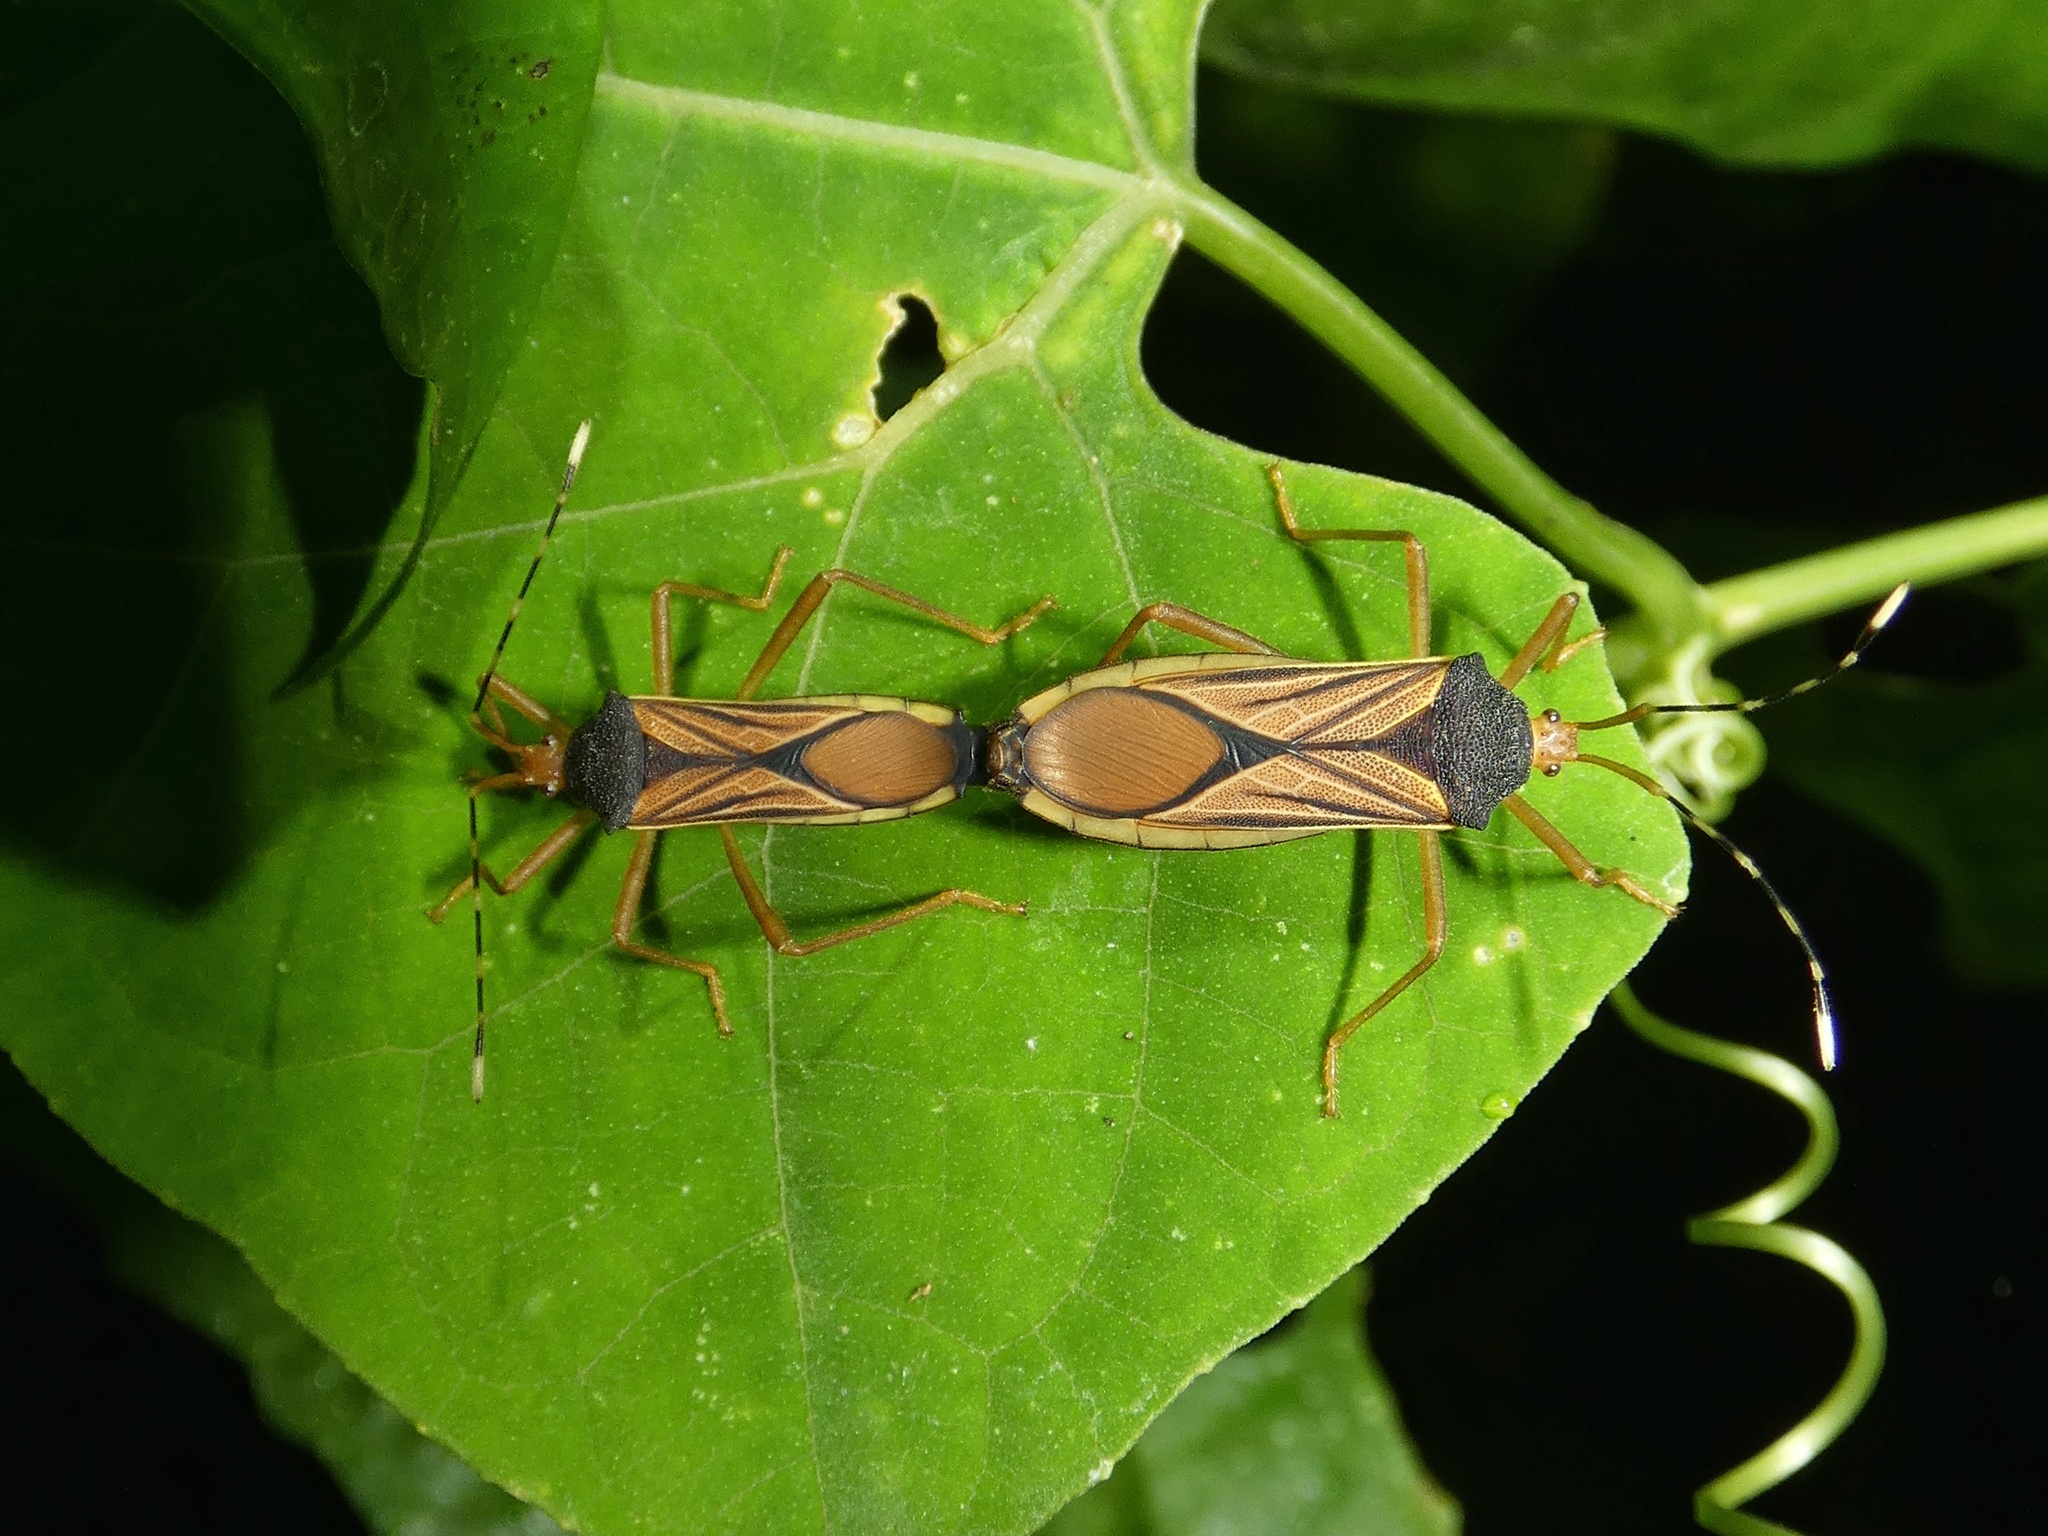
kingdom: Animalia
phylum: Arthropoda
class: Insecta
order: Hemiptera
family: Coreidae
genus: Anasa
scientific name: Anasa nigricollis
